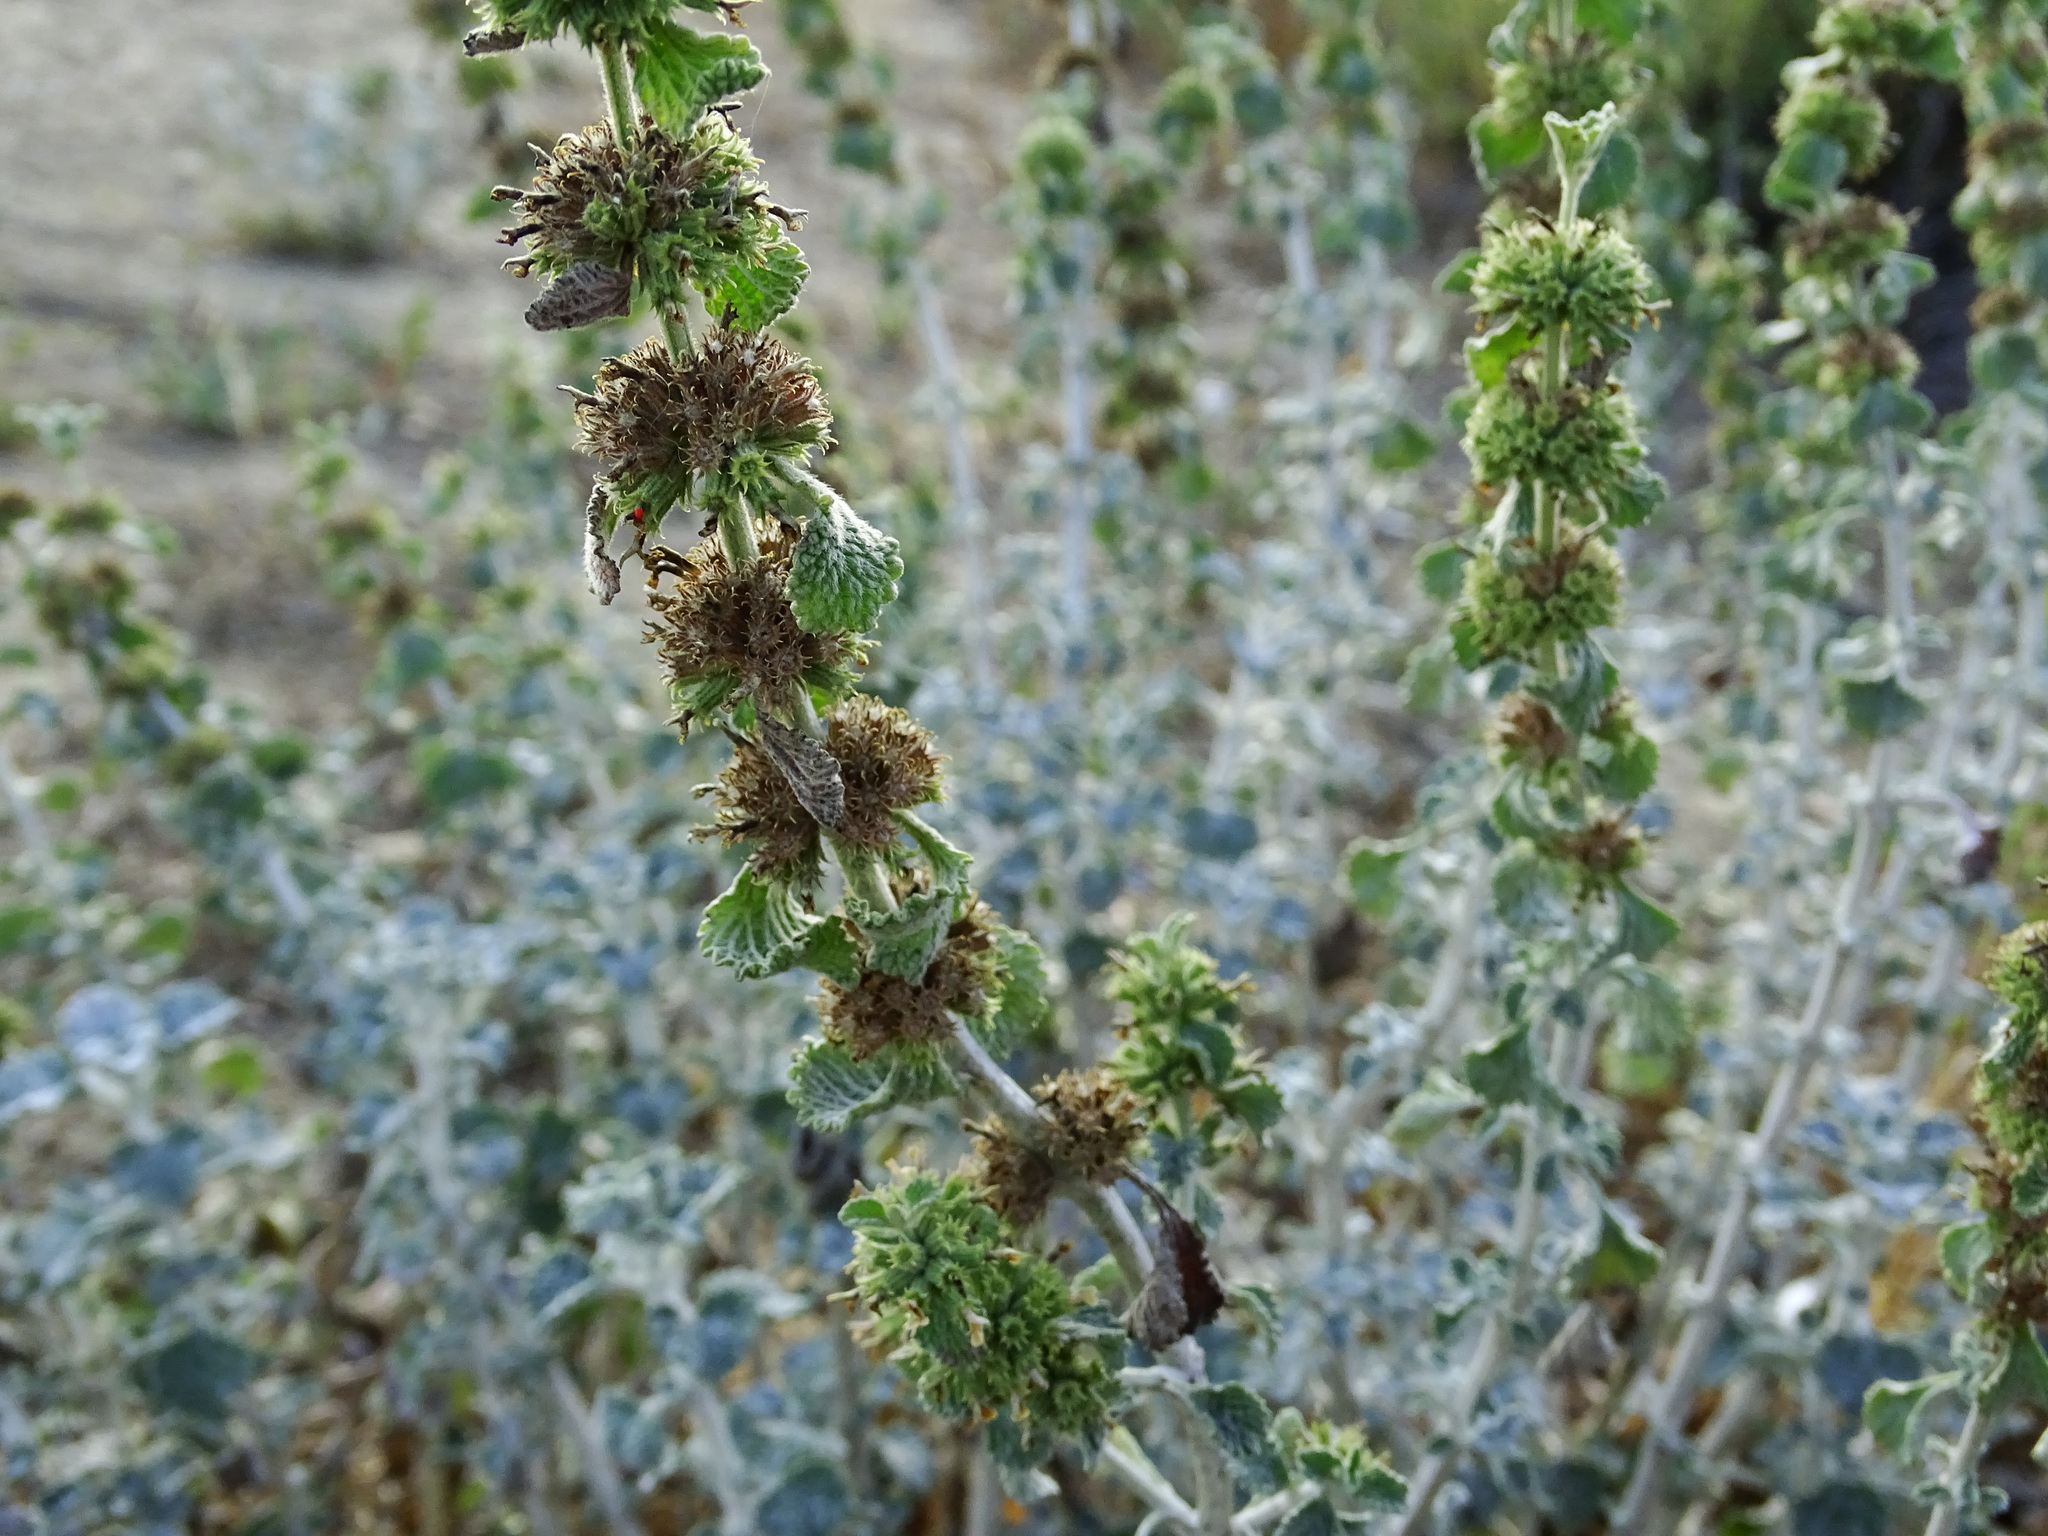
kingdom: Plantae
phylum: Tracheophyta
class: Magnoliopsida
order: Lamiales
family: Lamiaceae
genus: Marrubium
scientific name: Marrubium vulgare
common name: Horehound
